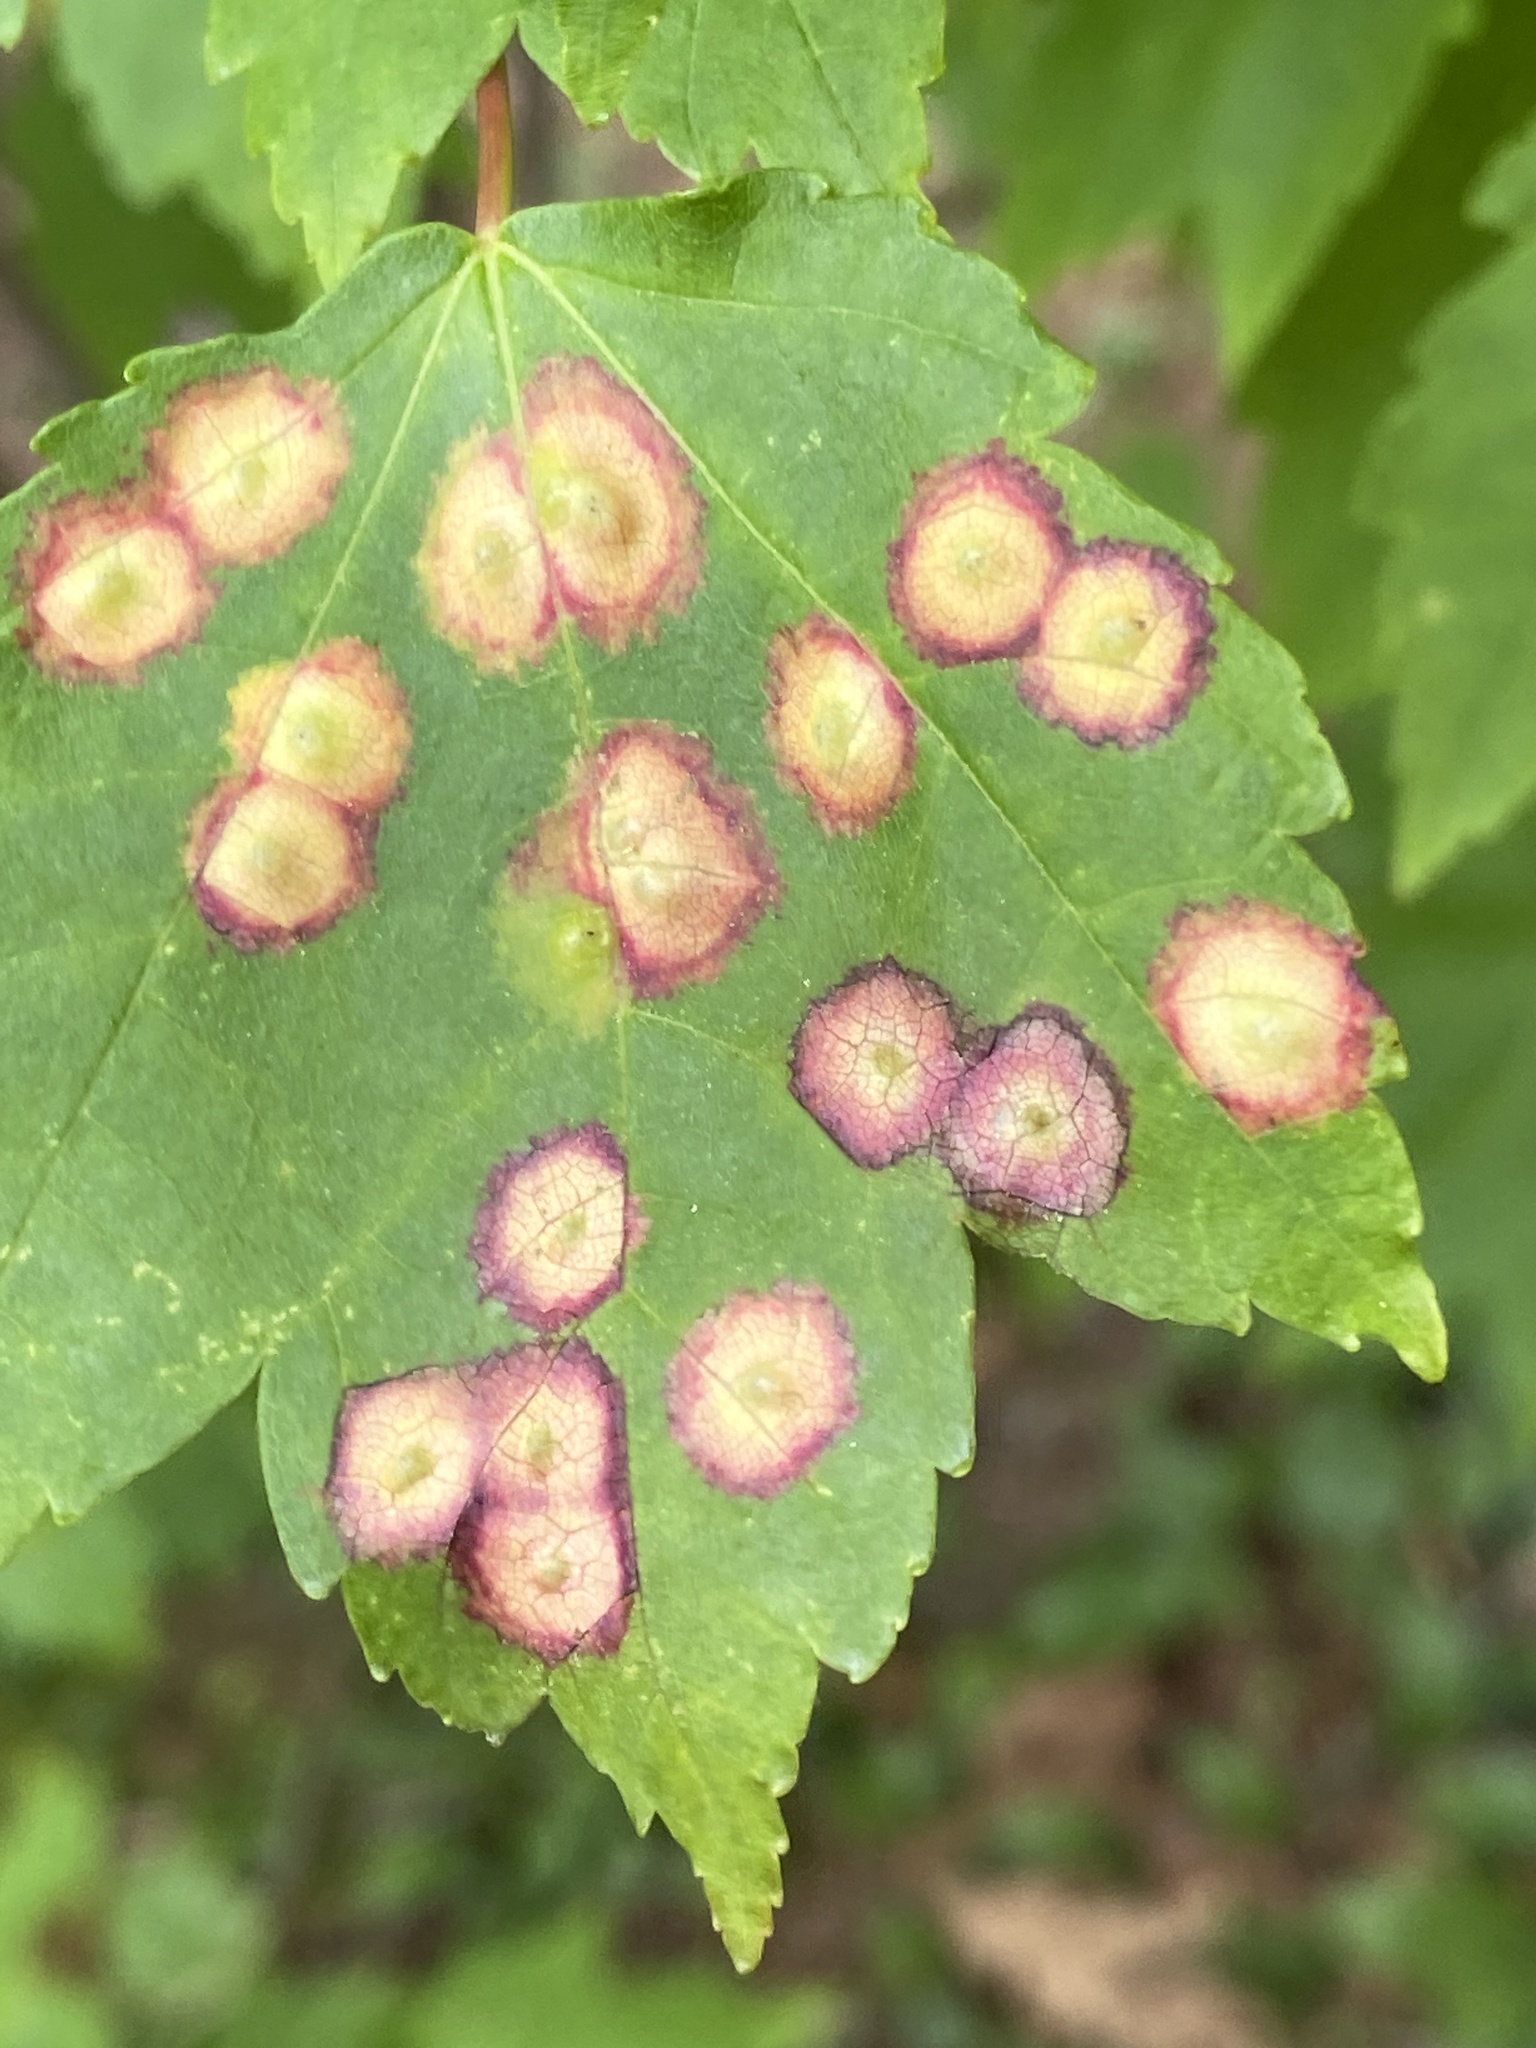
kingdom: Animalia
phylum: Arthropoda
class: Insecta
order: Diptera
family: Cecidomyiidae
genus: Acericecis
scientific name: Acericecis ocellaris
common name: Ocellate gall midge
